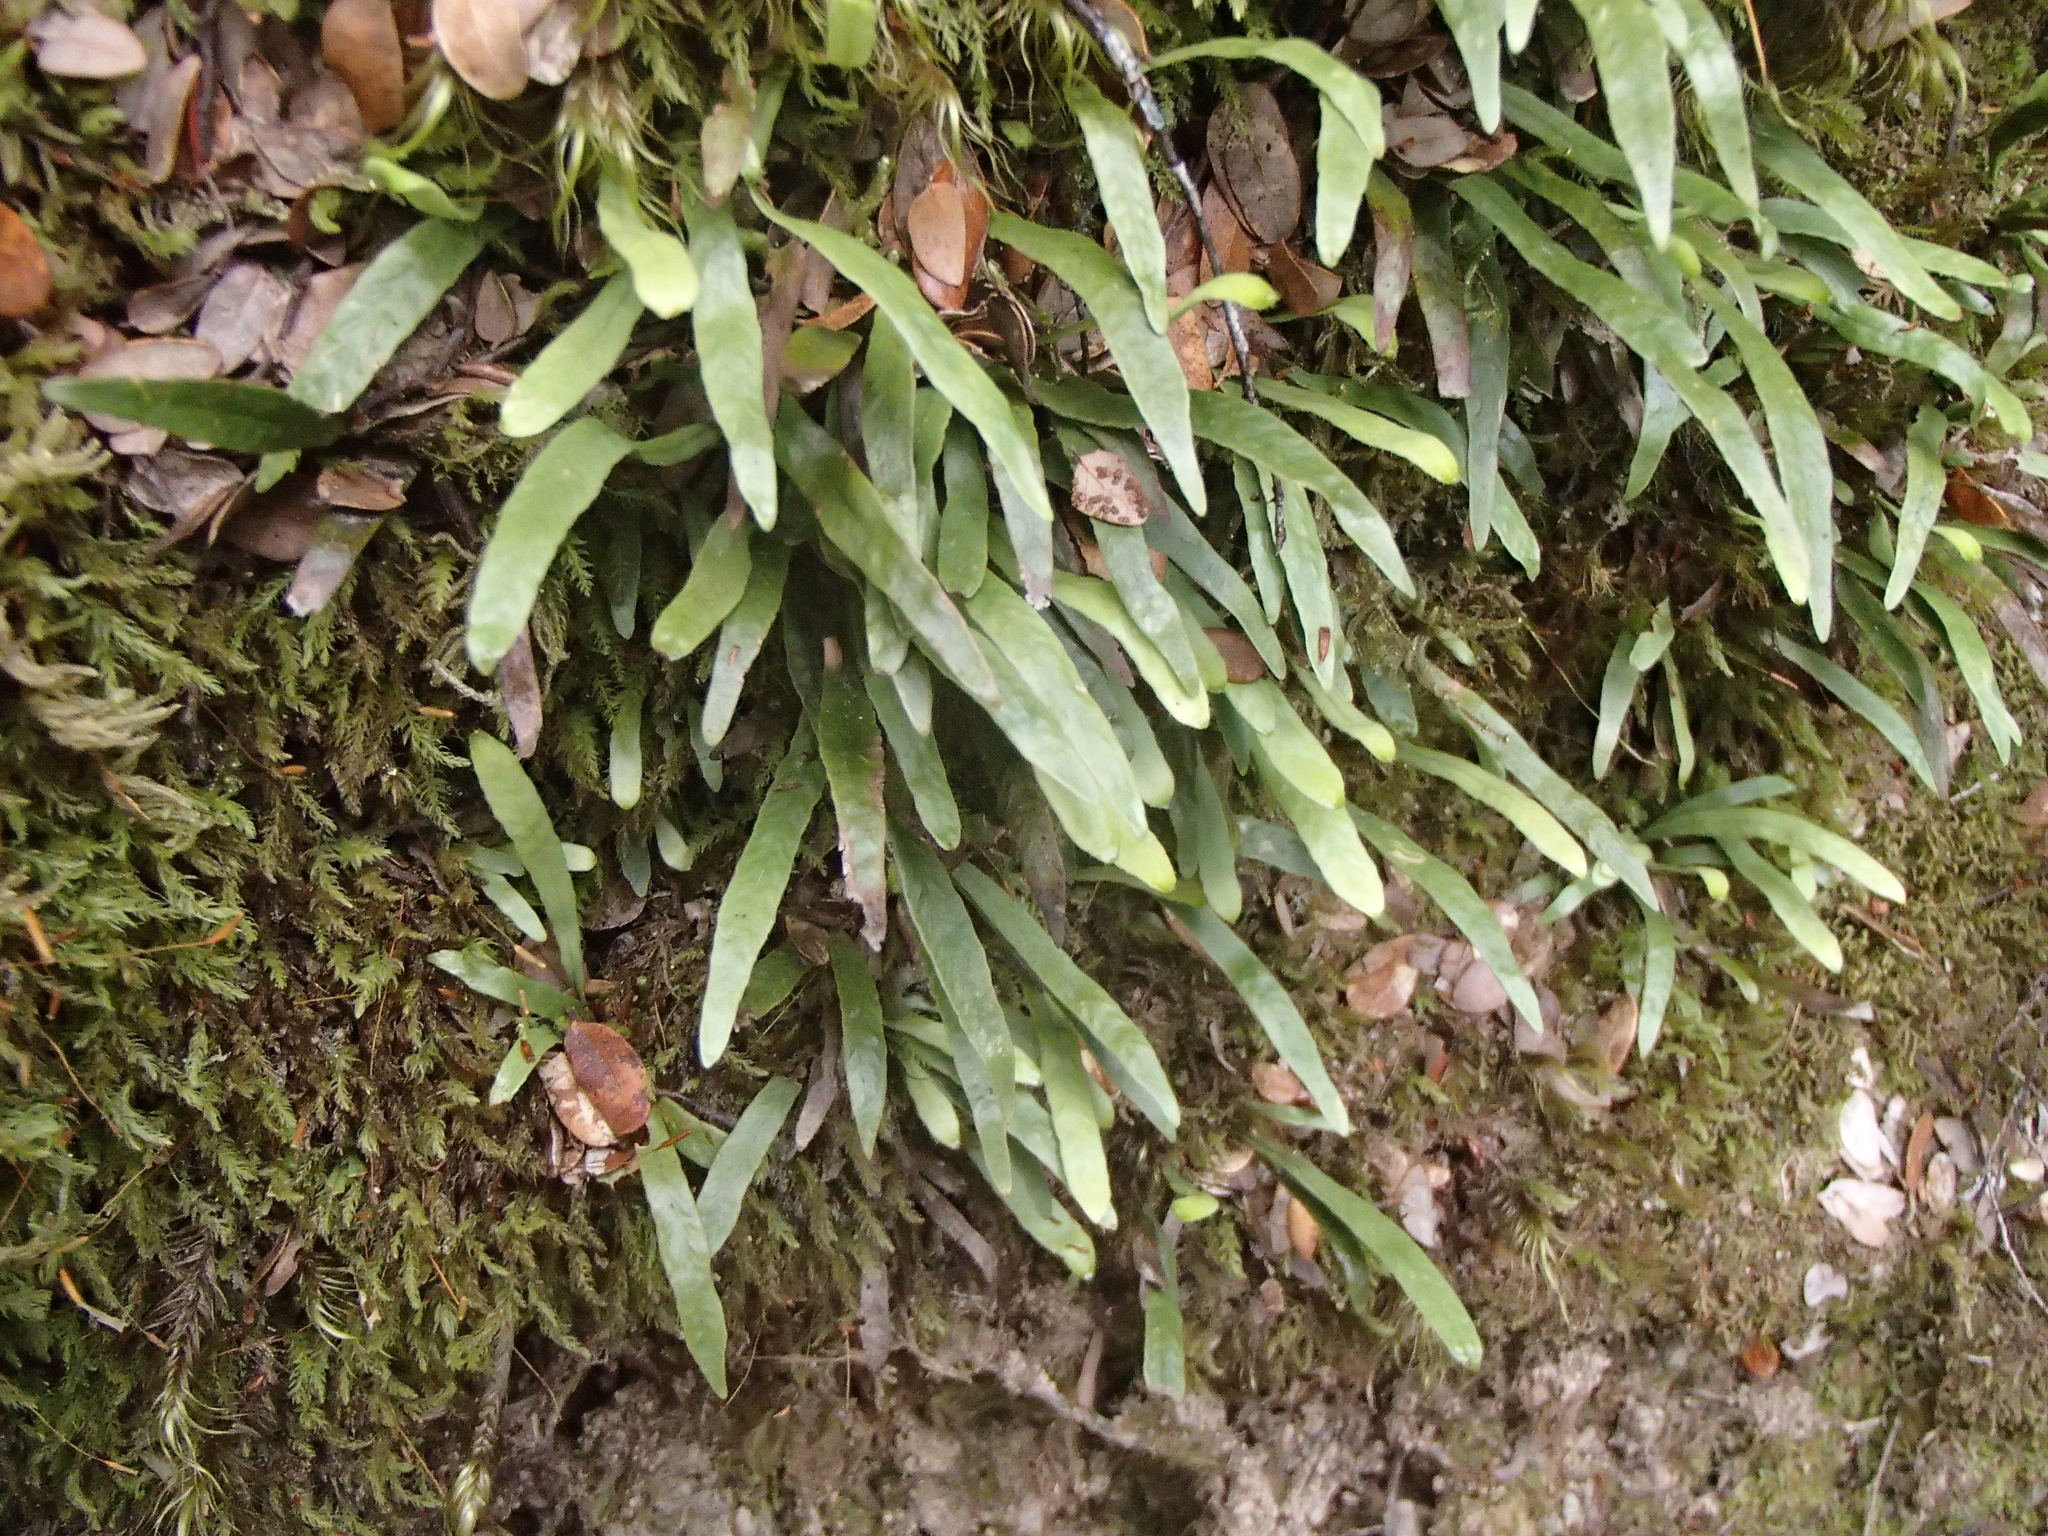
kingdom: Plantae
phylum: Tracheophyta
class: Polypodiopsida
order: Polypodiales
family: Polypodiaceae
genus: Notogrammitis
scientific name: Notogrammitis billardierei
